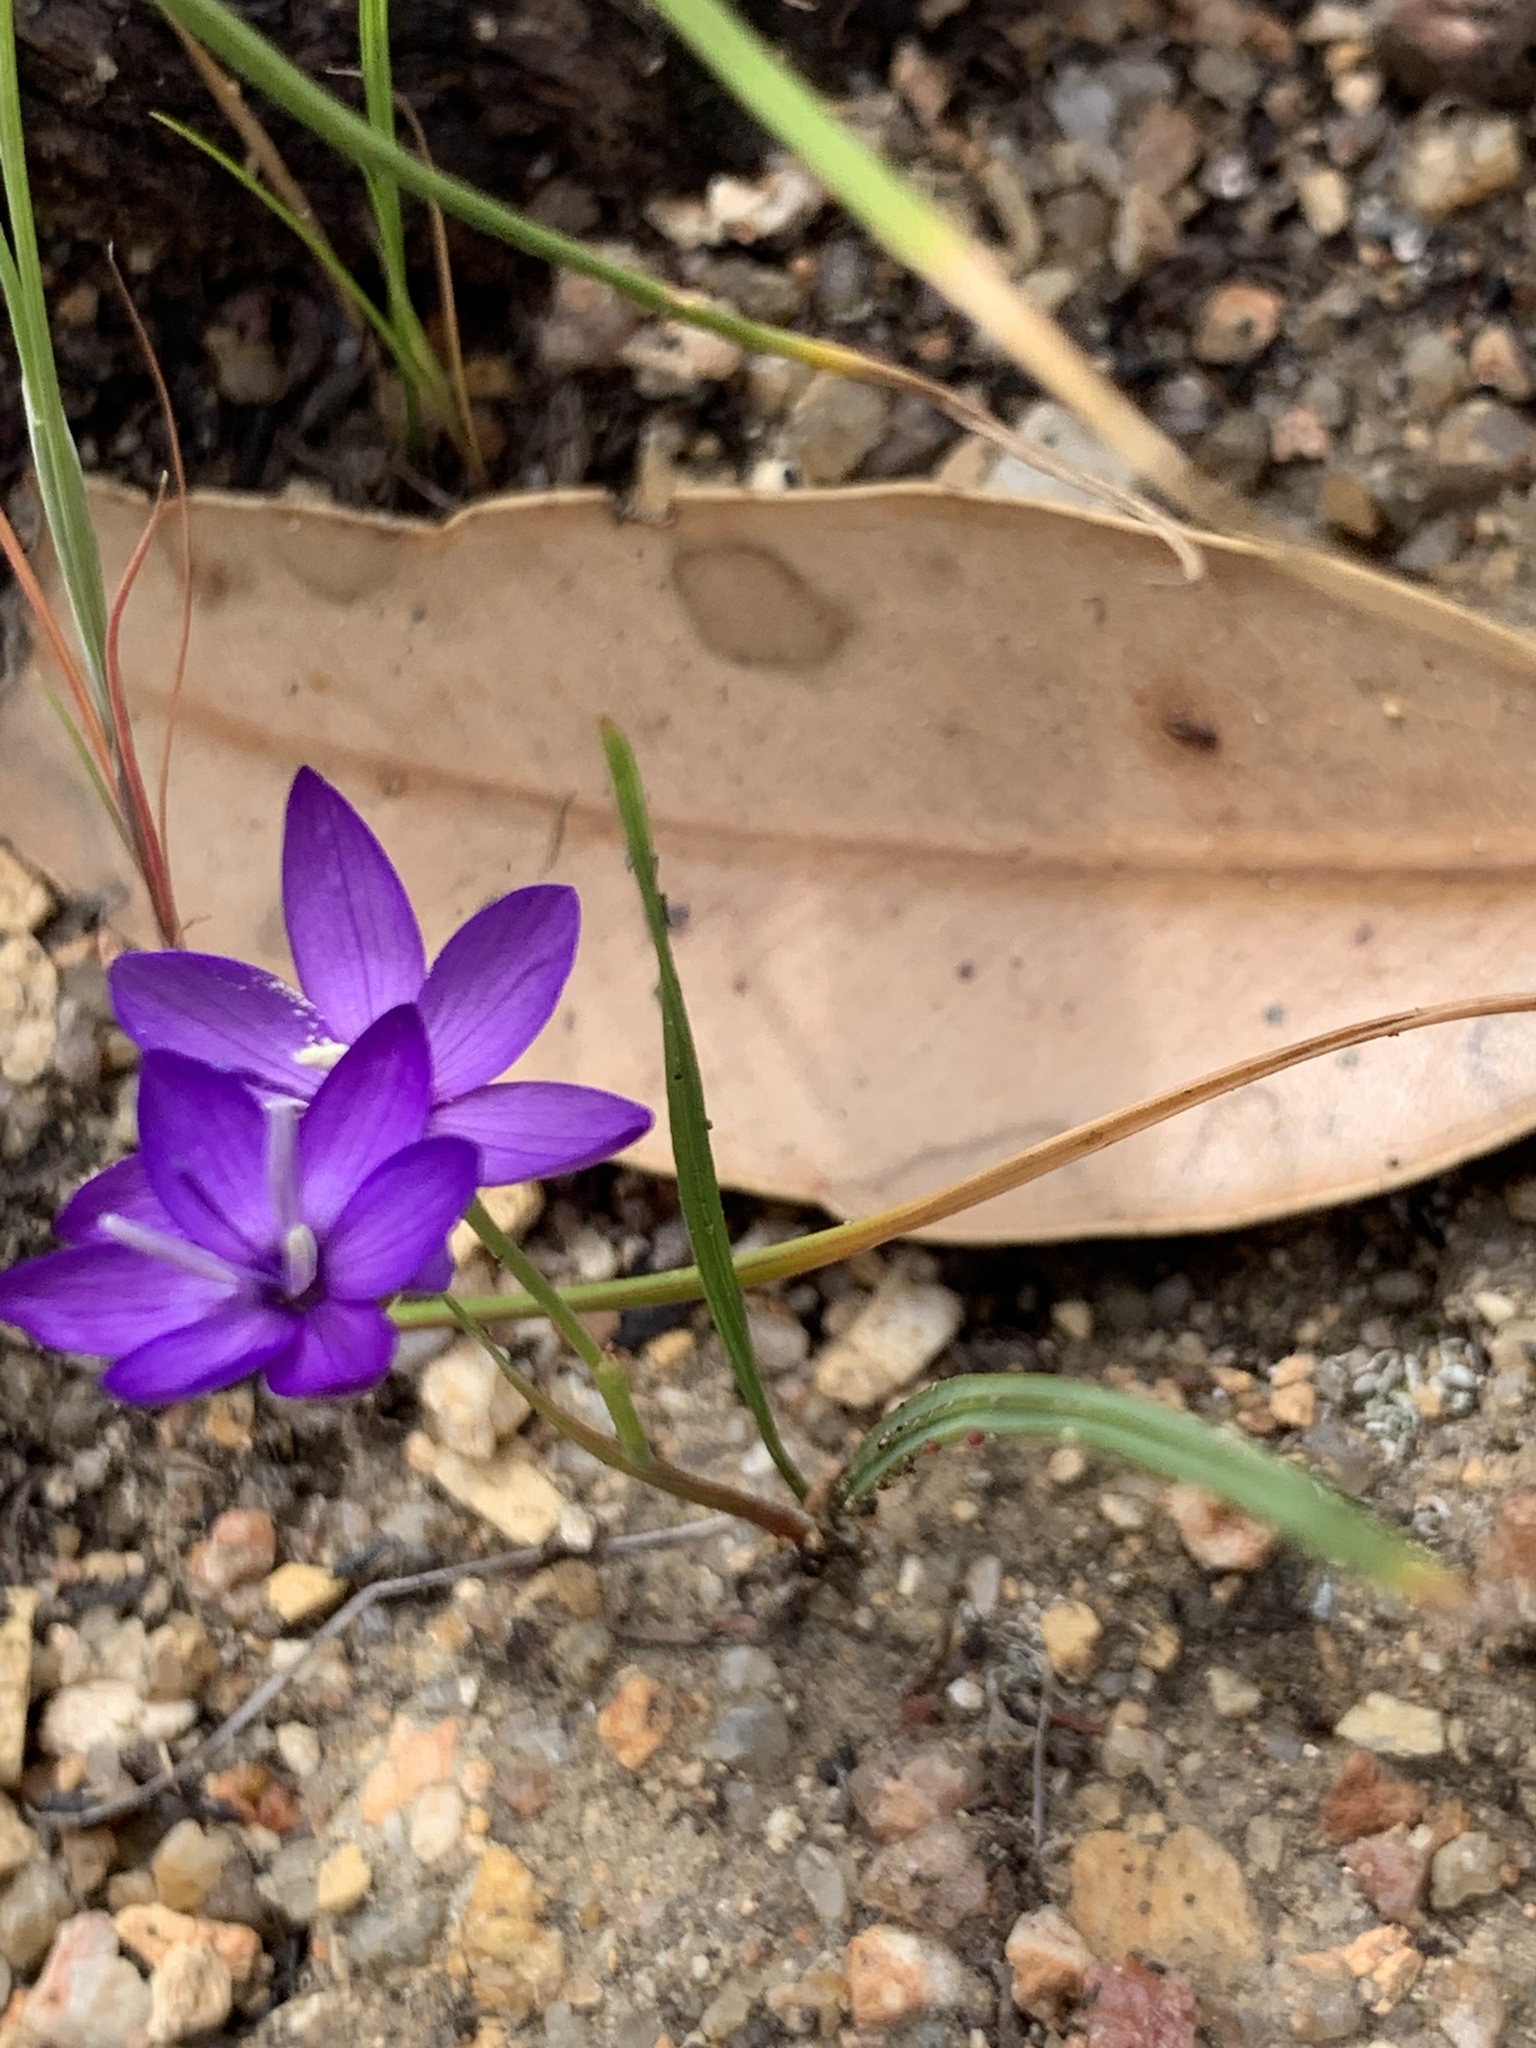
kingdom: Plantae
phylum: Tracheophyta
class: Liliopsida
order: Asparagales
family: Iridaceae
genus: Geissorhiza
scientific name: Geissorhiza aspera
